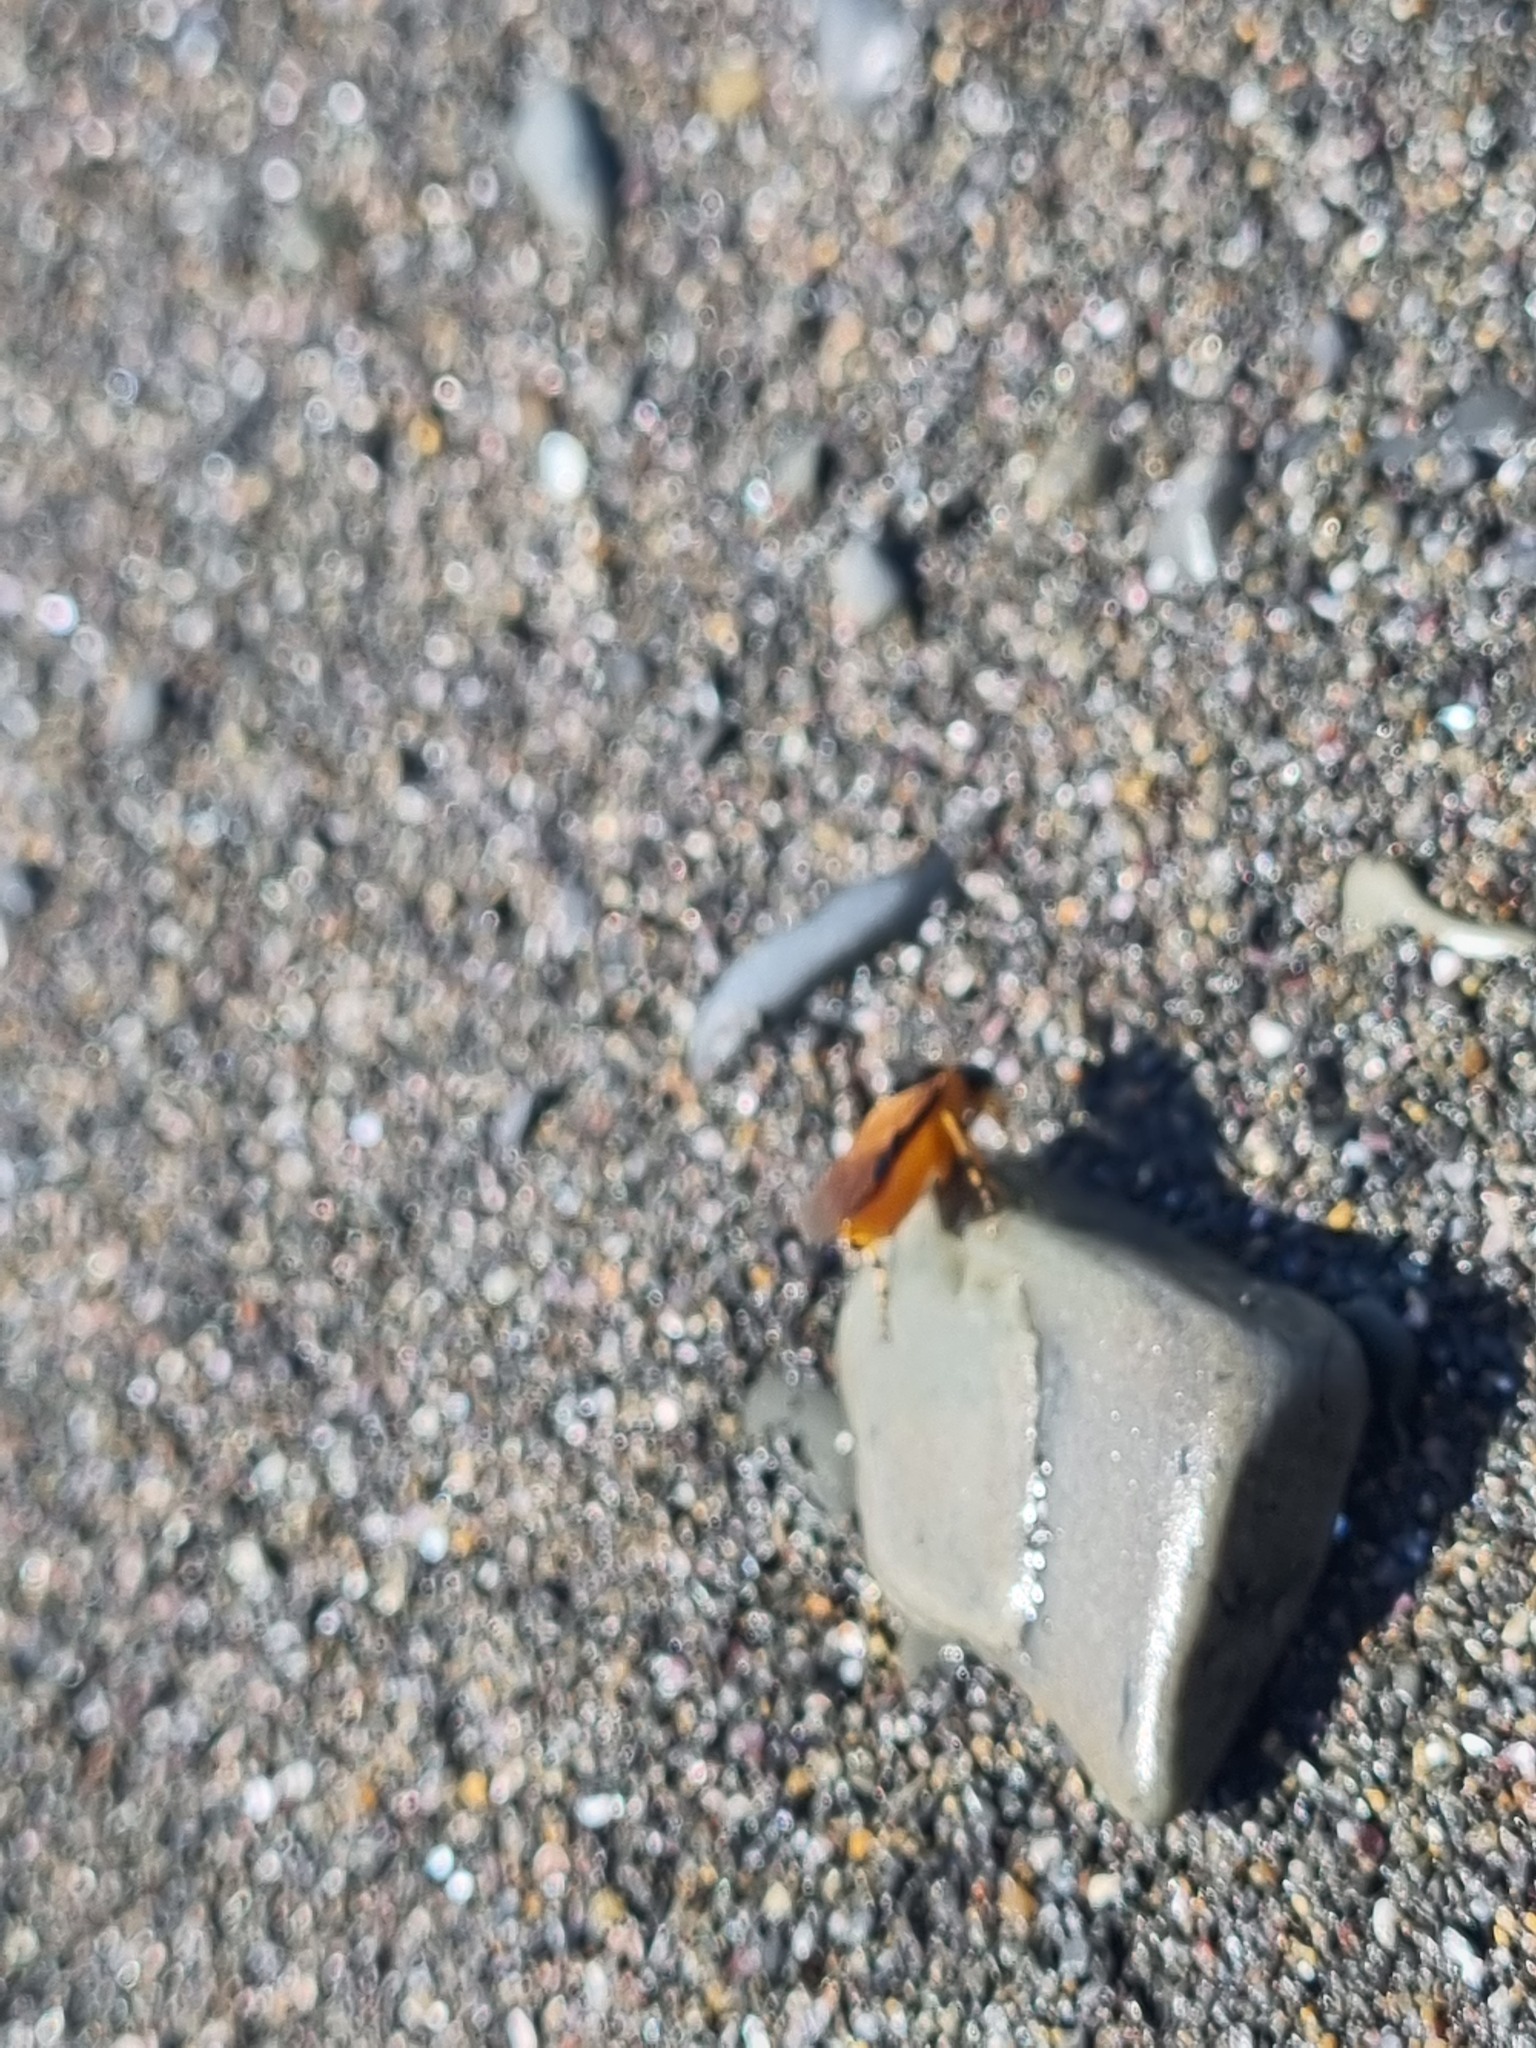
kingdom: Animalia
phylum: Arthropoda
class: Insecta
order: Hymenoptera
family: Argidae
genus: Arge
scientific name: Arge ochropus
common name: Argid sawfly
